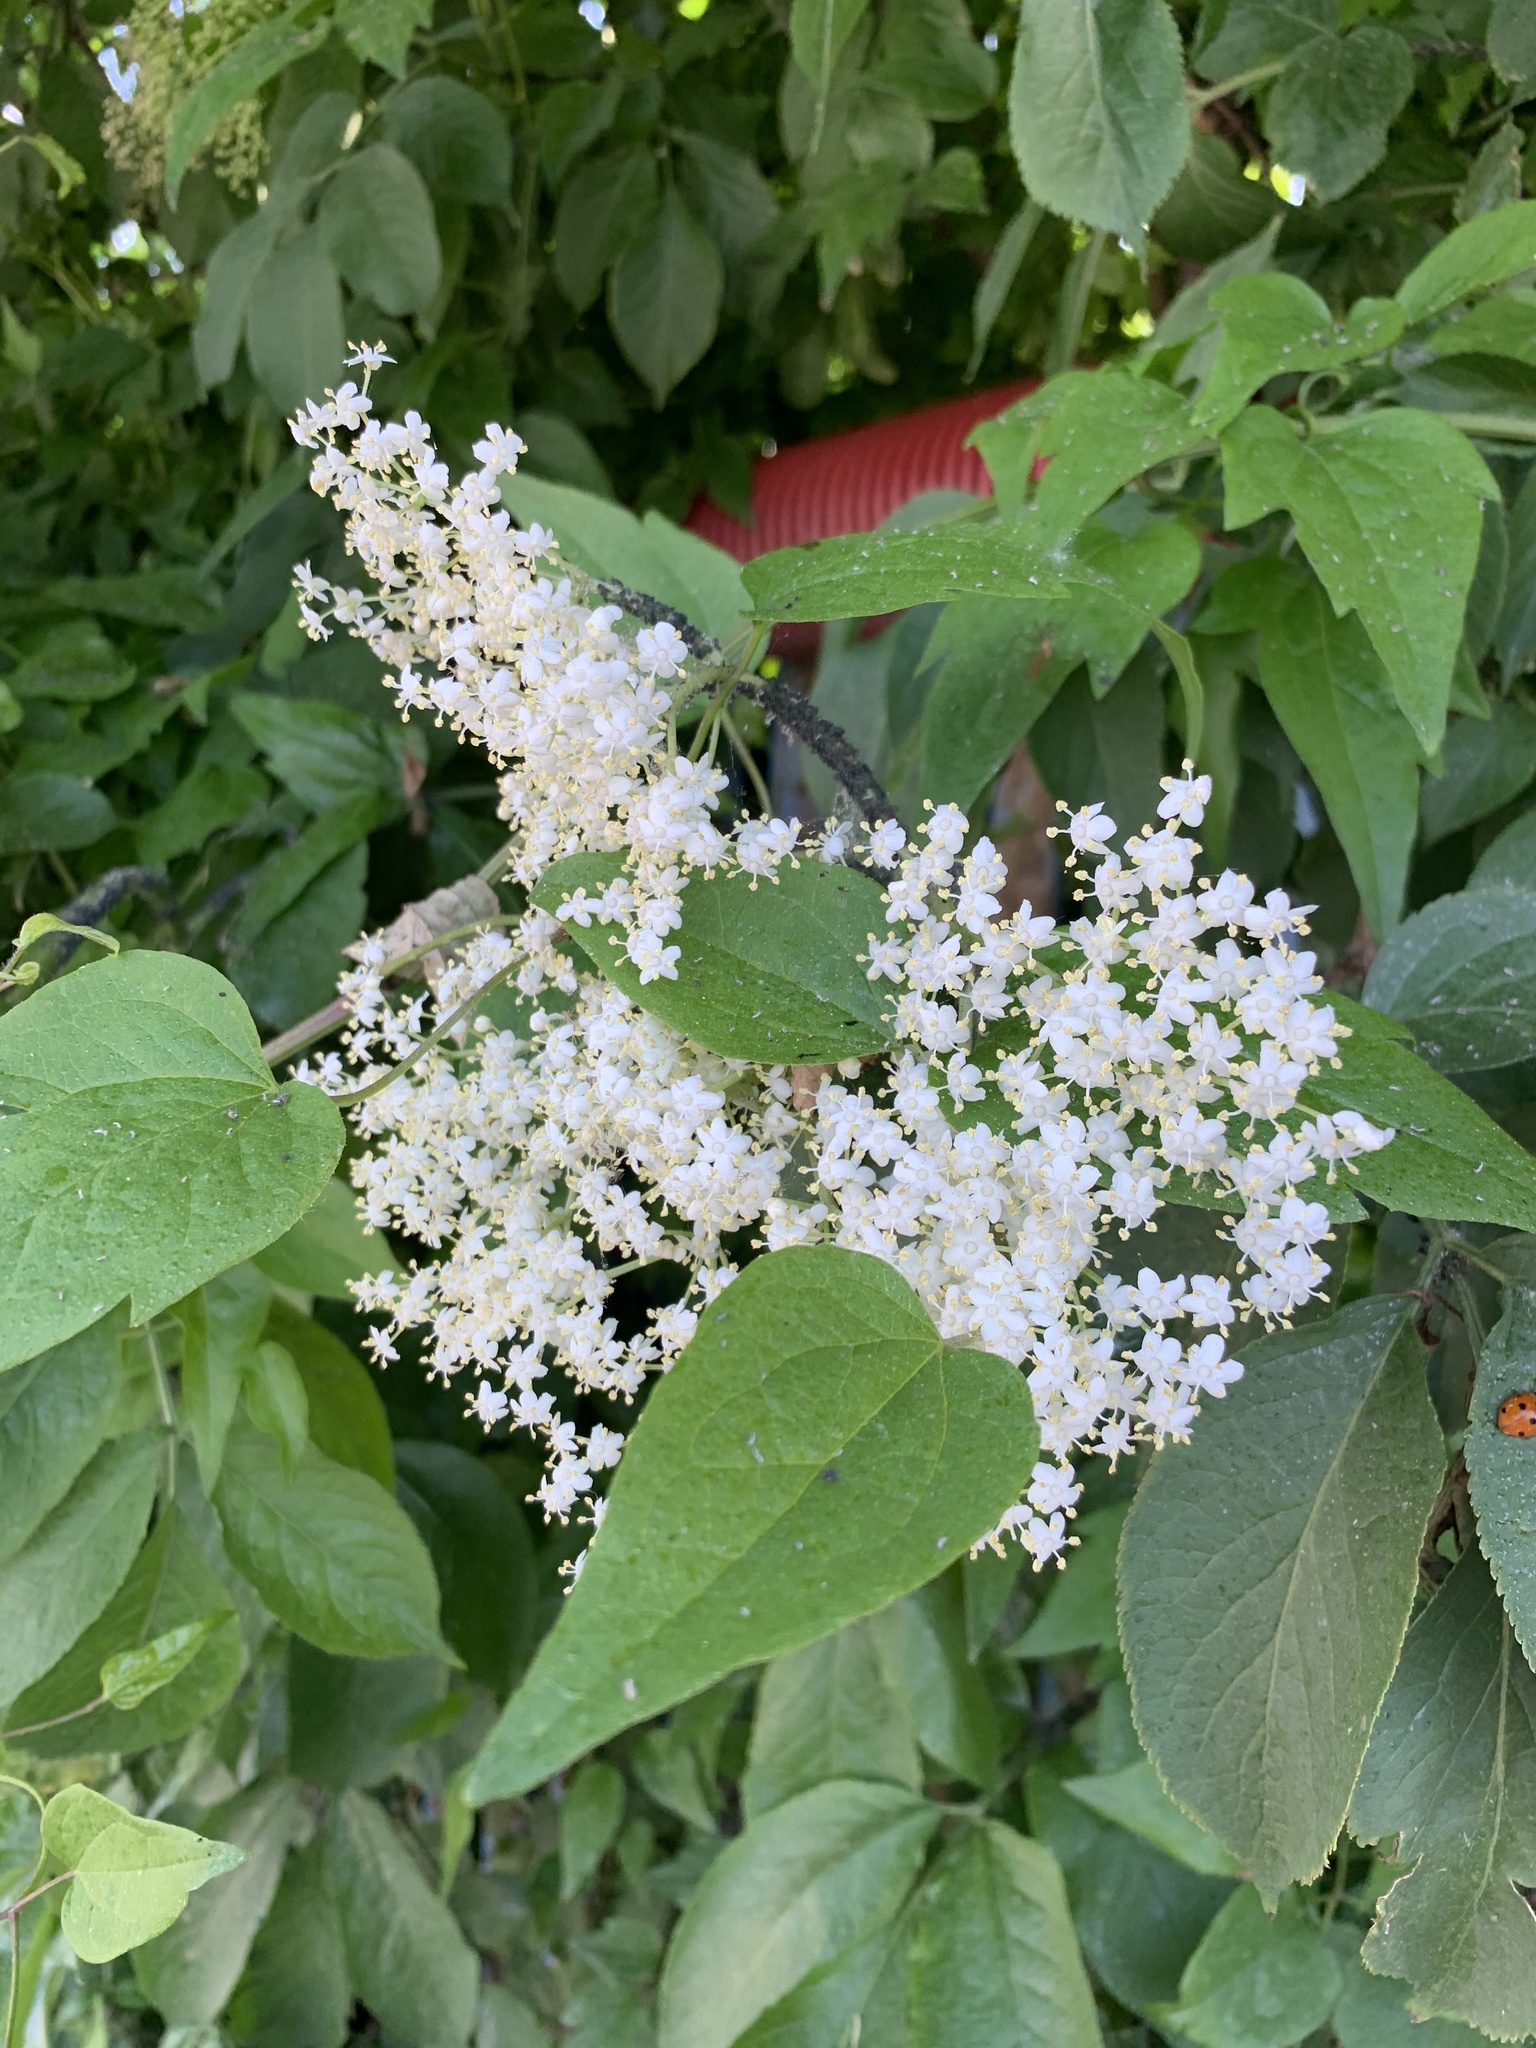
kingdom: Plantae
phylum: Tracheophyta
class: Magnoliopsida
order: Dipsacales
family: Viburnaceae
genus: Sambucus
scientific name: Sambucus nigra
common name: Elder
